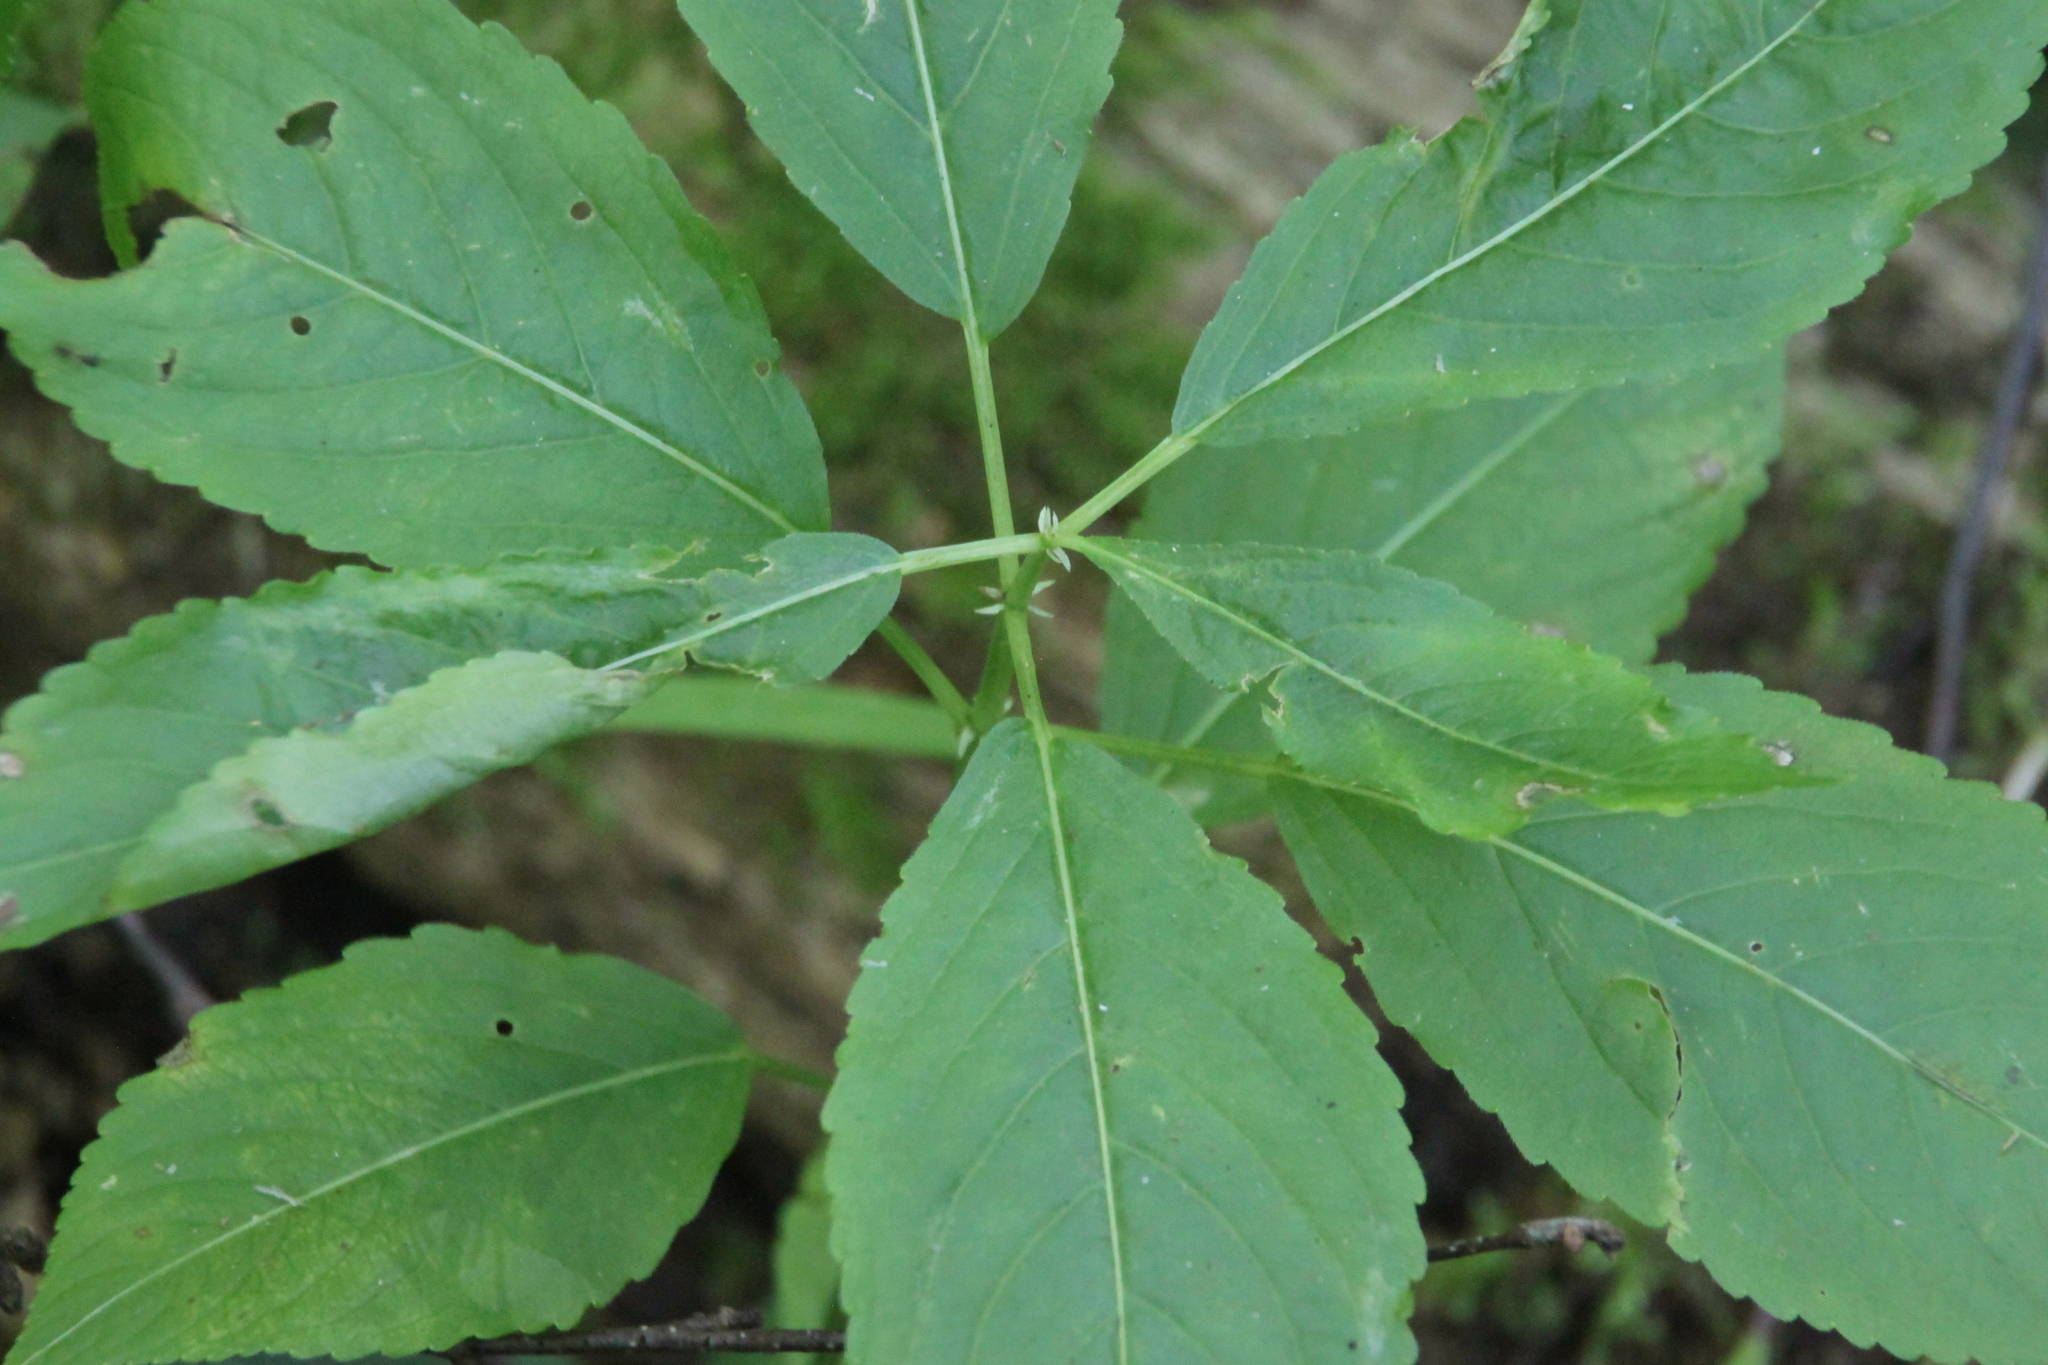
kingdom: Plantae
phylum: Tracheophyta
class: Magnoliopsida
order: Malpighiales
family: Euphorbiaceae
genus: Mercurialis
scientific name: Mercurialis perennis
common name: Dog mercury
